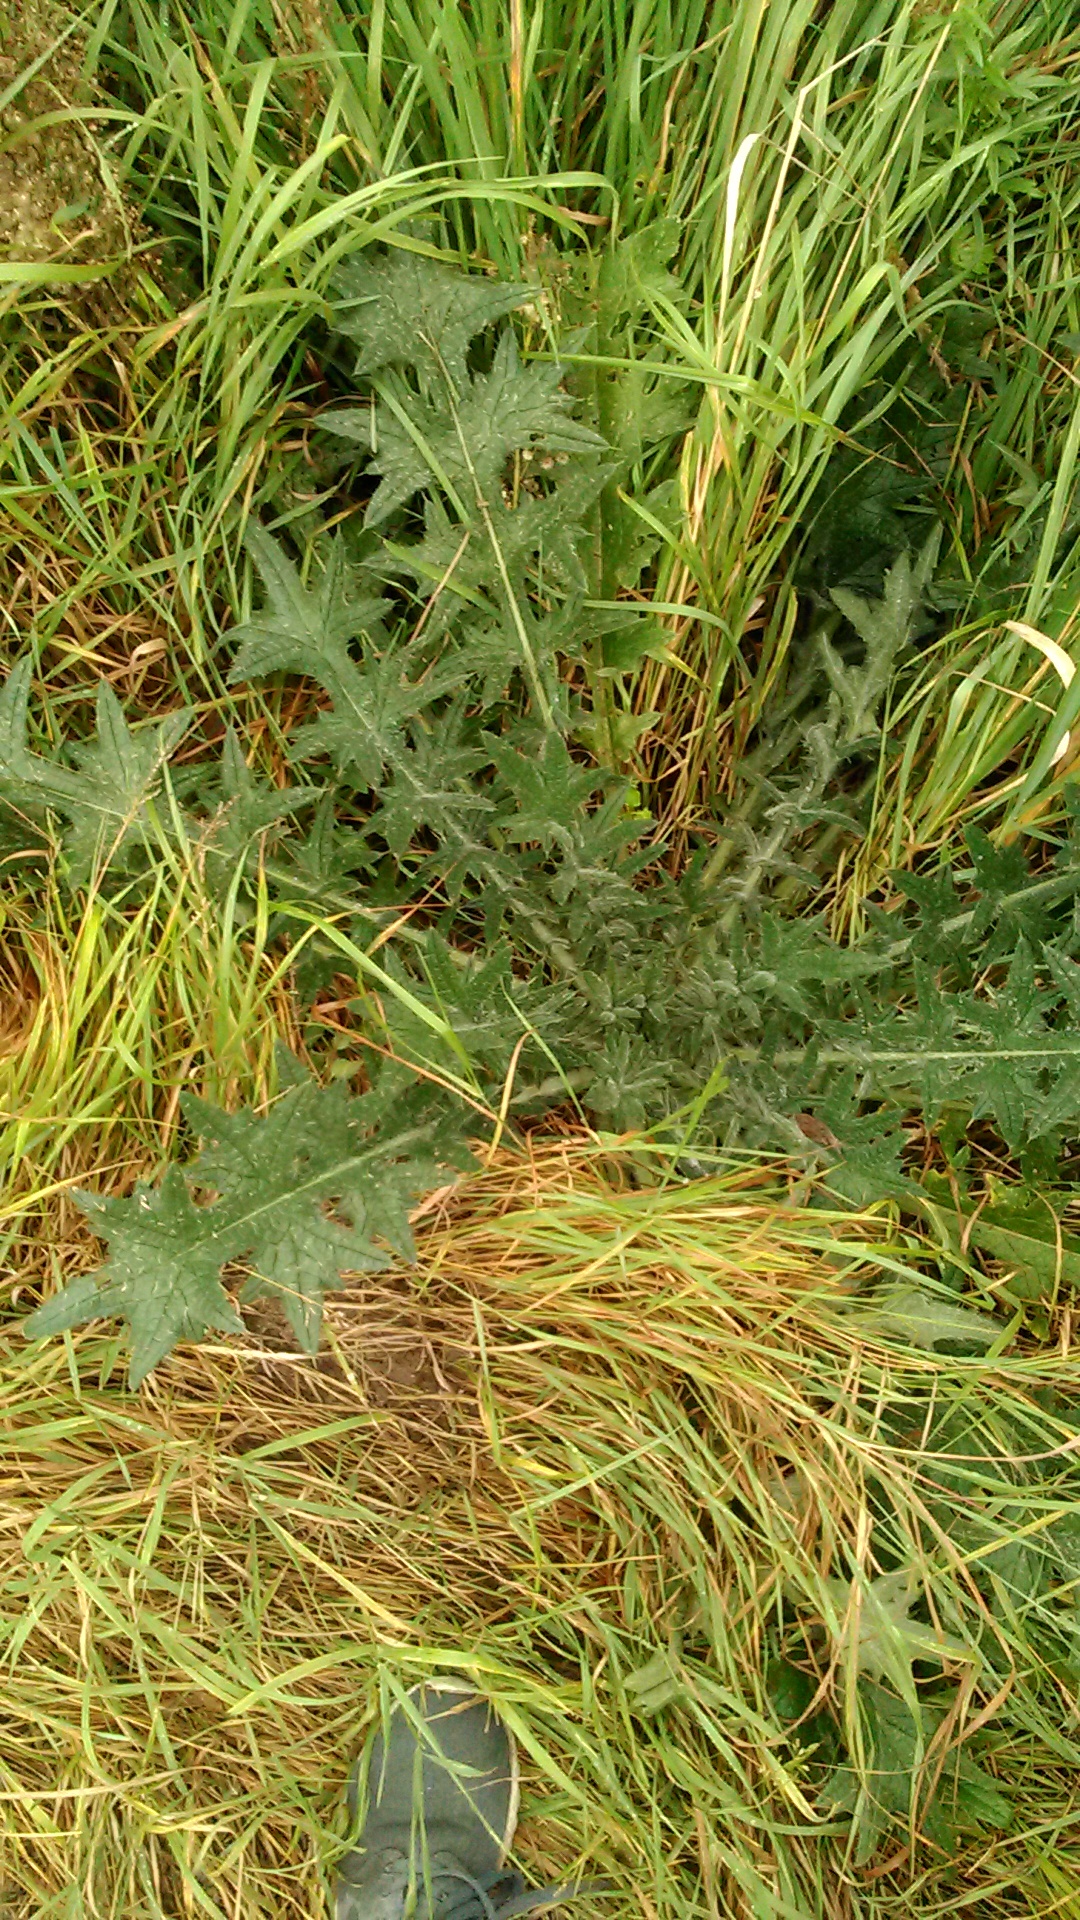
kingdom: Plantae
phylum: Tracheophyta
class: Magnoliopsida
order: Asterales
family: Asteraceae
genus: Cirsium
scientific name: Cirsium vulgare
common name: Bull thistle
